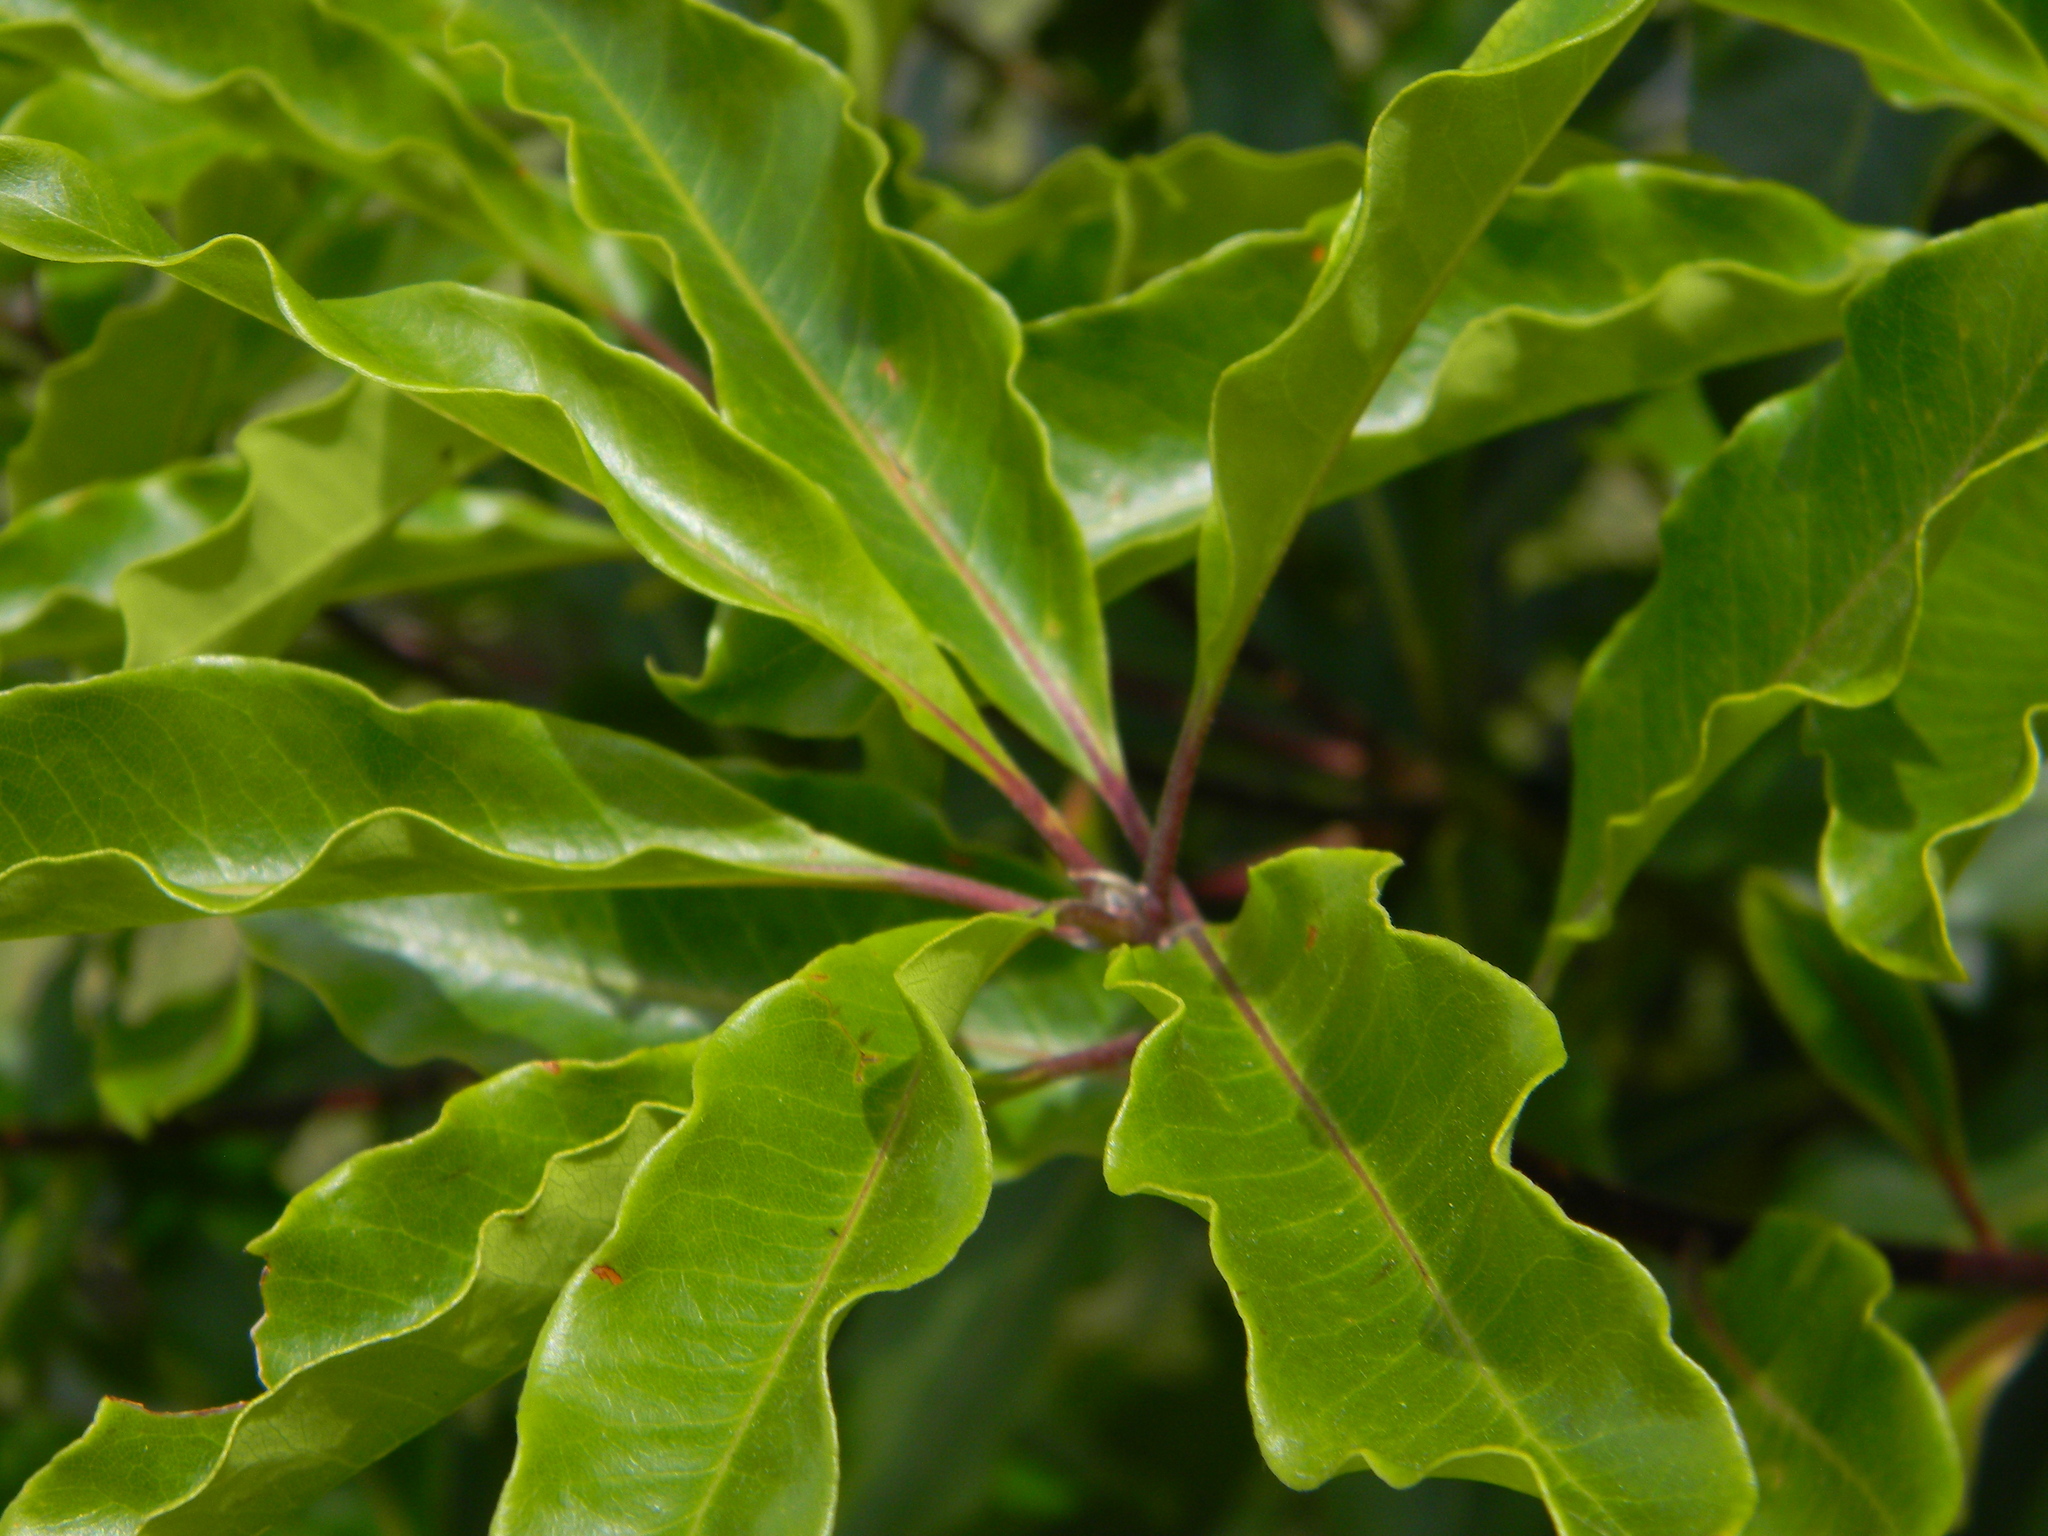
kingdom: Plantae
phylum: Tracheophyta
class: Magnoliopsida
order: Apiales
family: Pittosporaceae
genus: Pittosporum
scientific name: Pittosporum undulatum
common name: Australian cheesewood
